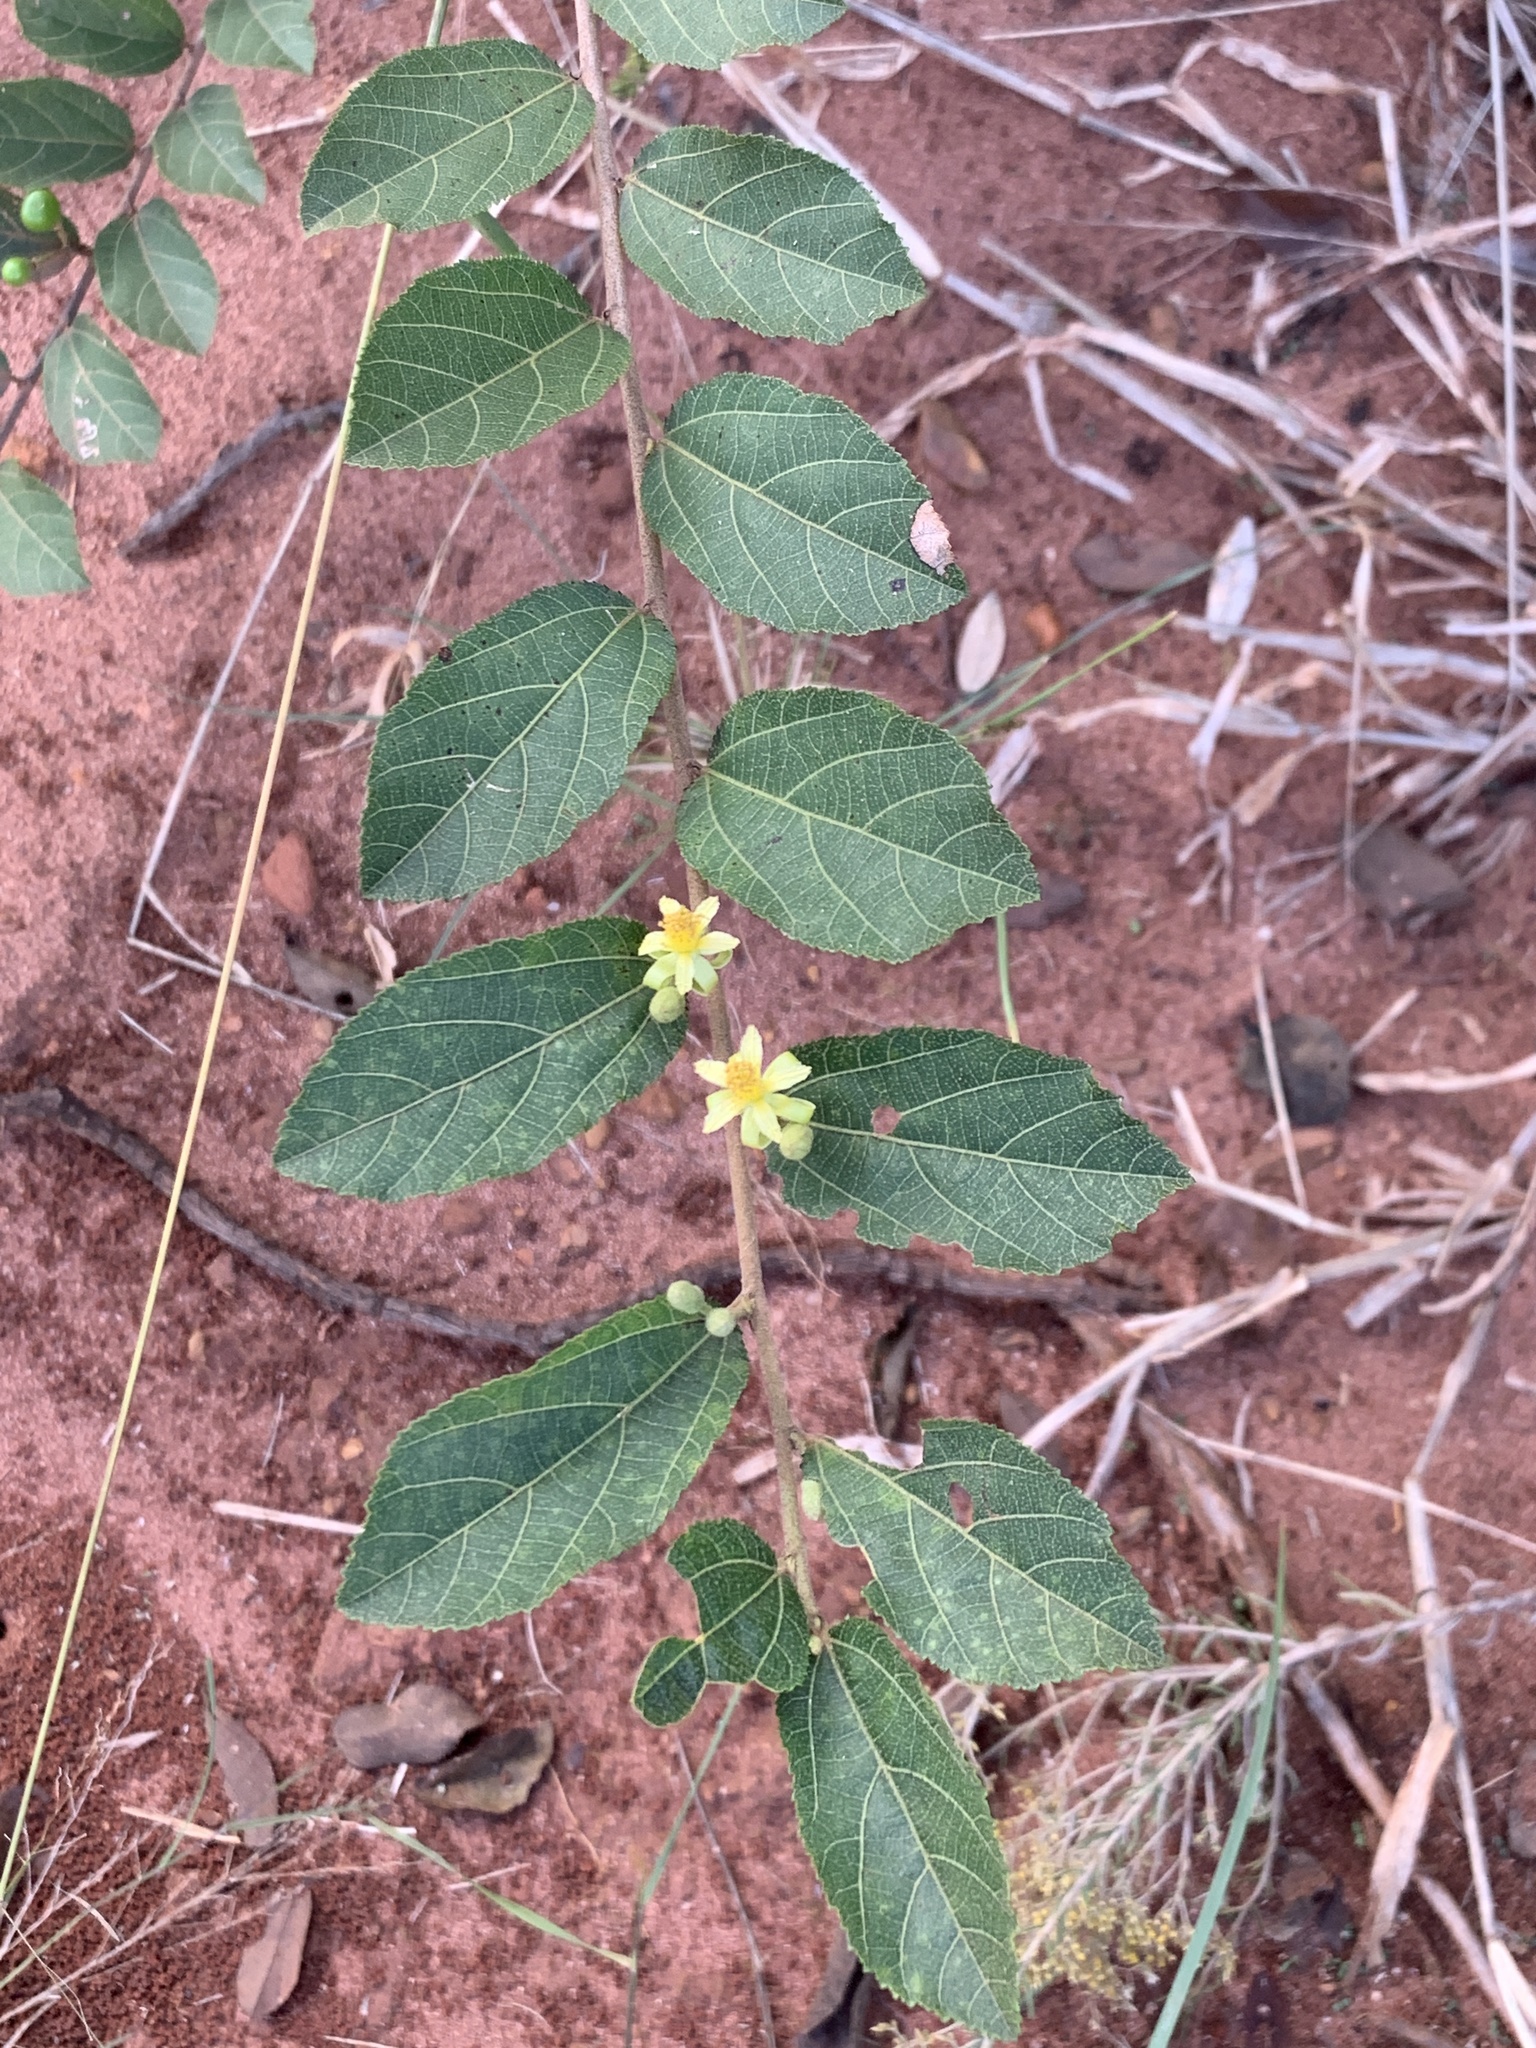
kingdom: Plantae
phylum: Tracheophyta
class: Magnoliopsida
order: Malvales
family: Malvaceae
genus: Grewia
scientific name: Grewia flavescens
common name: Sandpaper raisin
